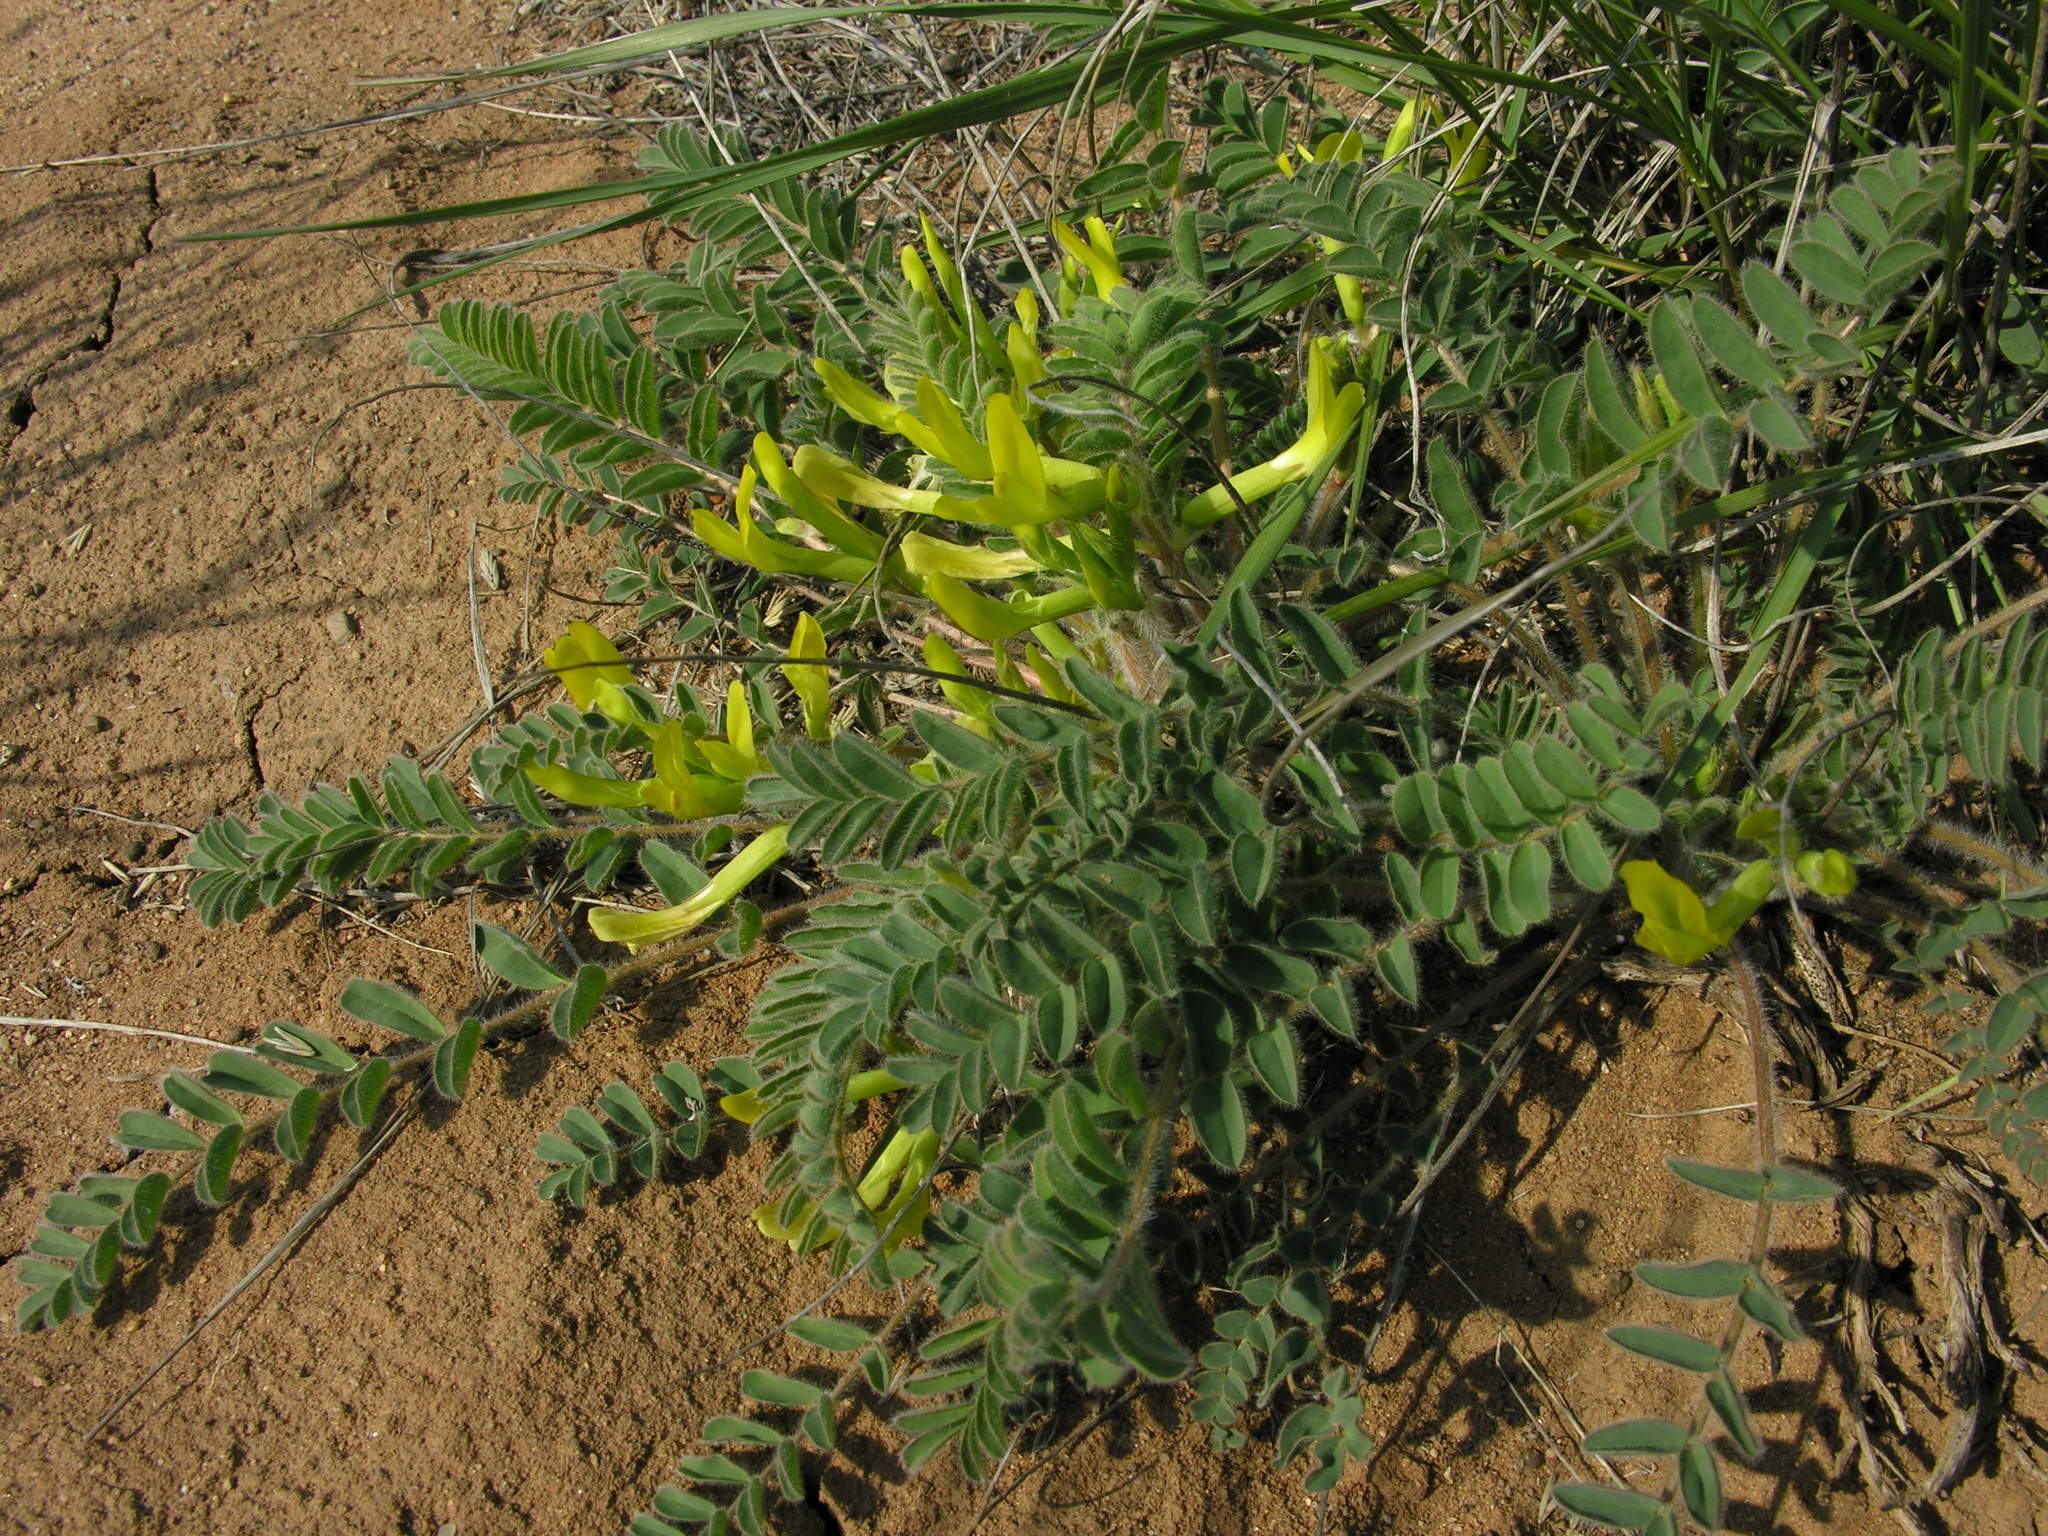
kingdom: Plantae
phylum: Tracheophyta
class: Magnoliopsida
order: Fabales
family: Fabaceae
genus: Astragalus
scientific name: Astragalus longipetalus
